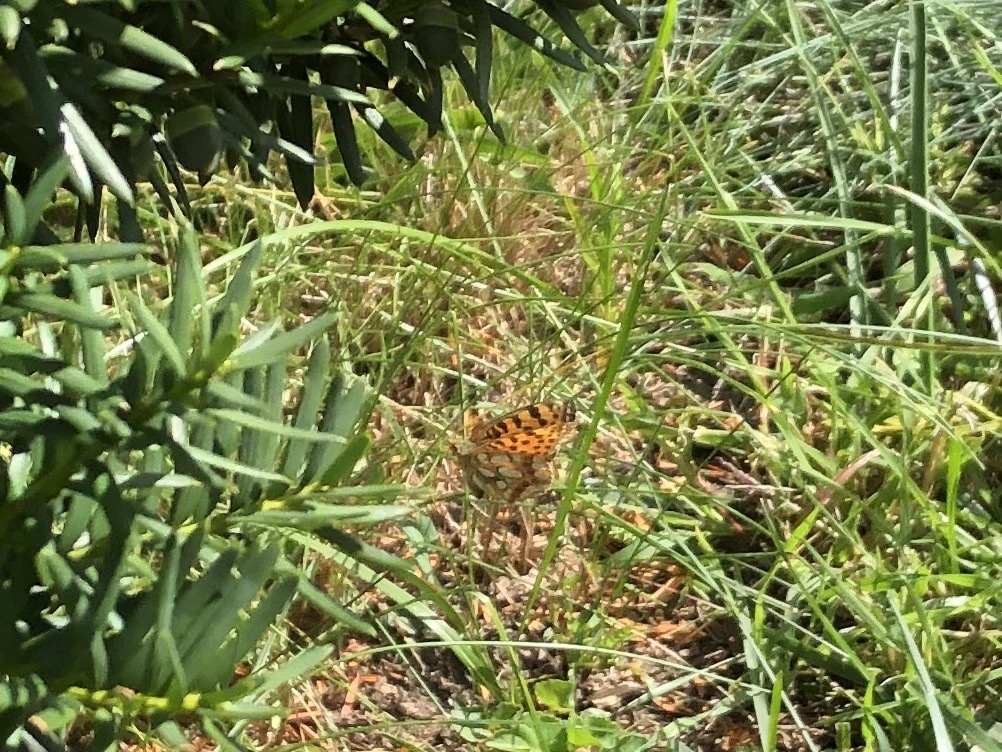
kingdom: Animalia
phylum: Arthropoda
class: Insecta
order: Lepidoptera
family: Nymphalidae
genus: Issoria
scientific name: Issoria lathonia
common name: Queen of spain fritillary
